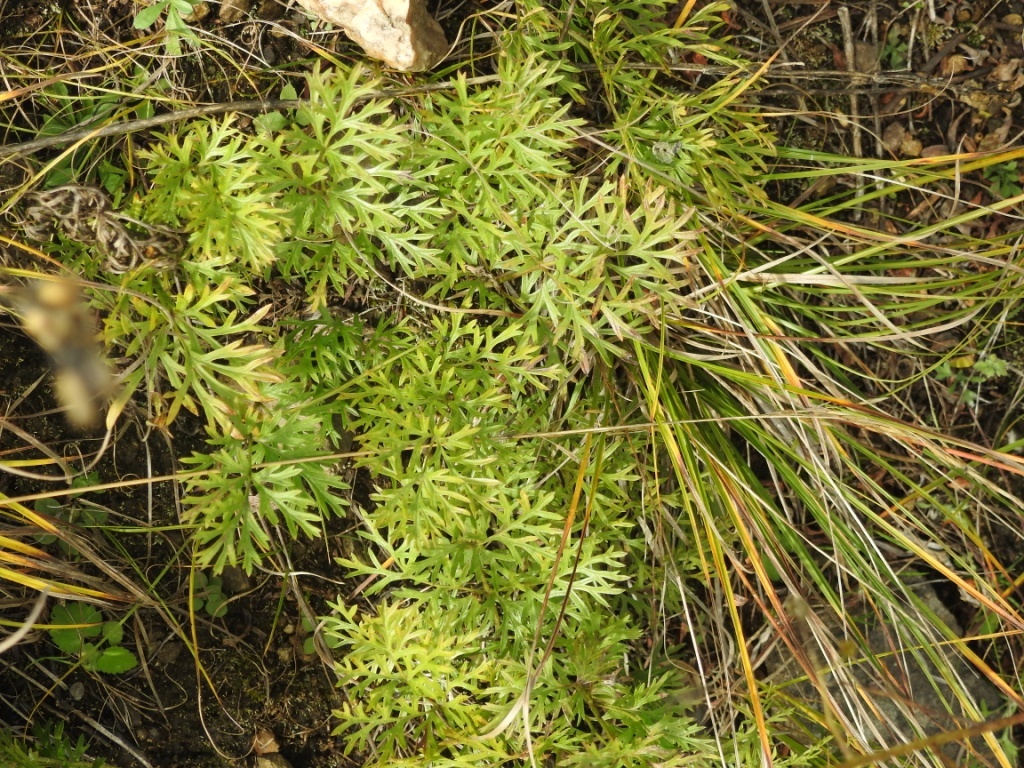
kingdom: Plantae
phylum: Tracheophyta
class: Magnoliopsida
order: Ranunculales
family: Ranunculaceae
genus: Pulsatilla
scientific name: Pulsatilla turczaninovii
